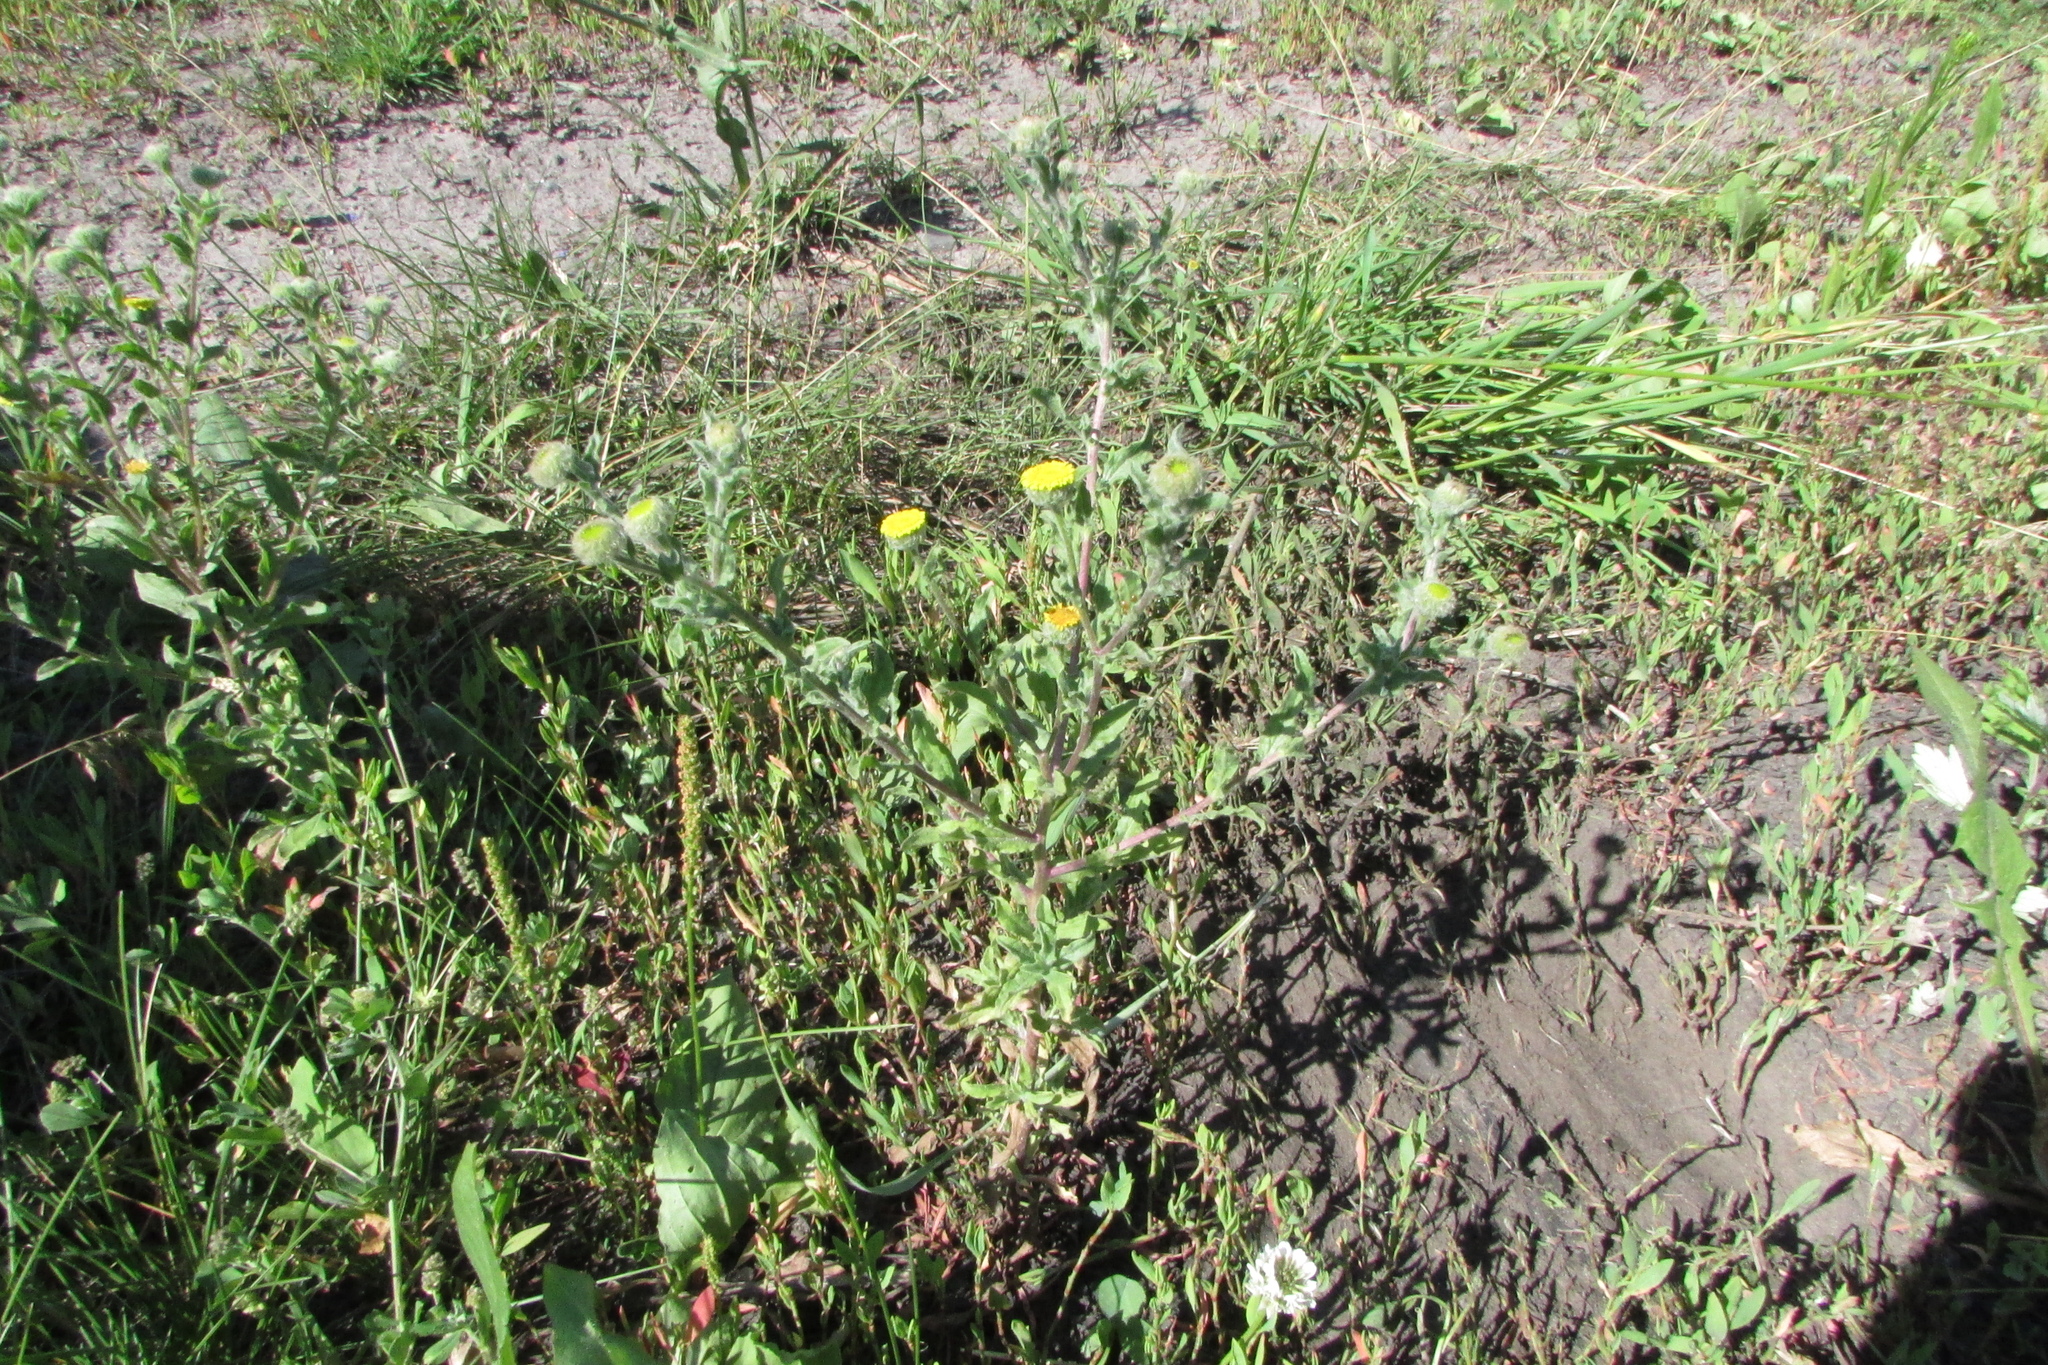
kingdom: Plantae
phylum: Tracheophyta
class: Magnoliopsida
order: Asterales
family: Asteraceae
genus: Pulicaria
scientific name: Pulicaria vulgaris
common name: Small fleabane
